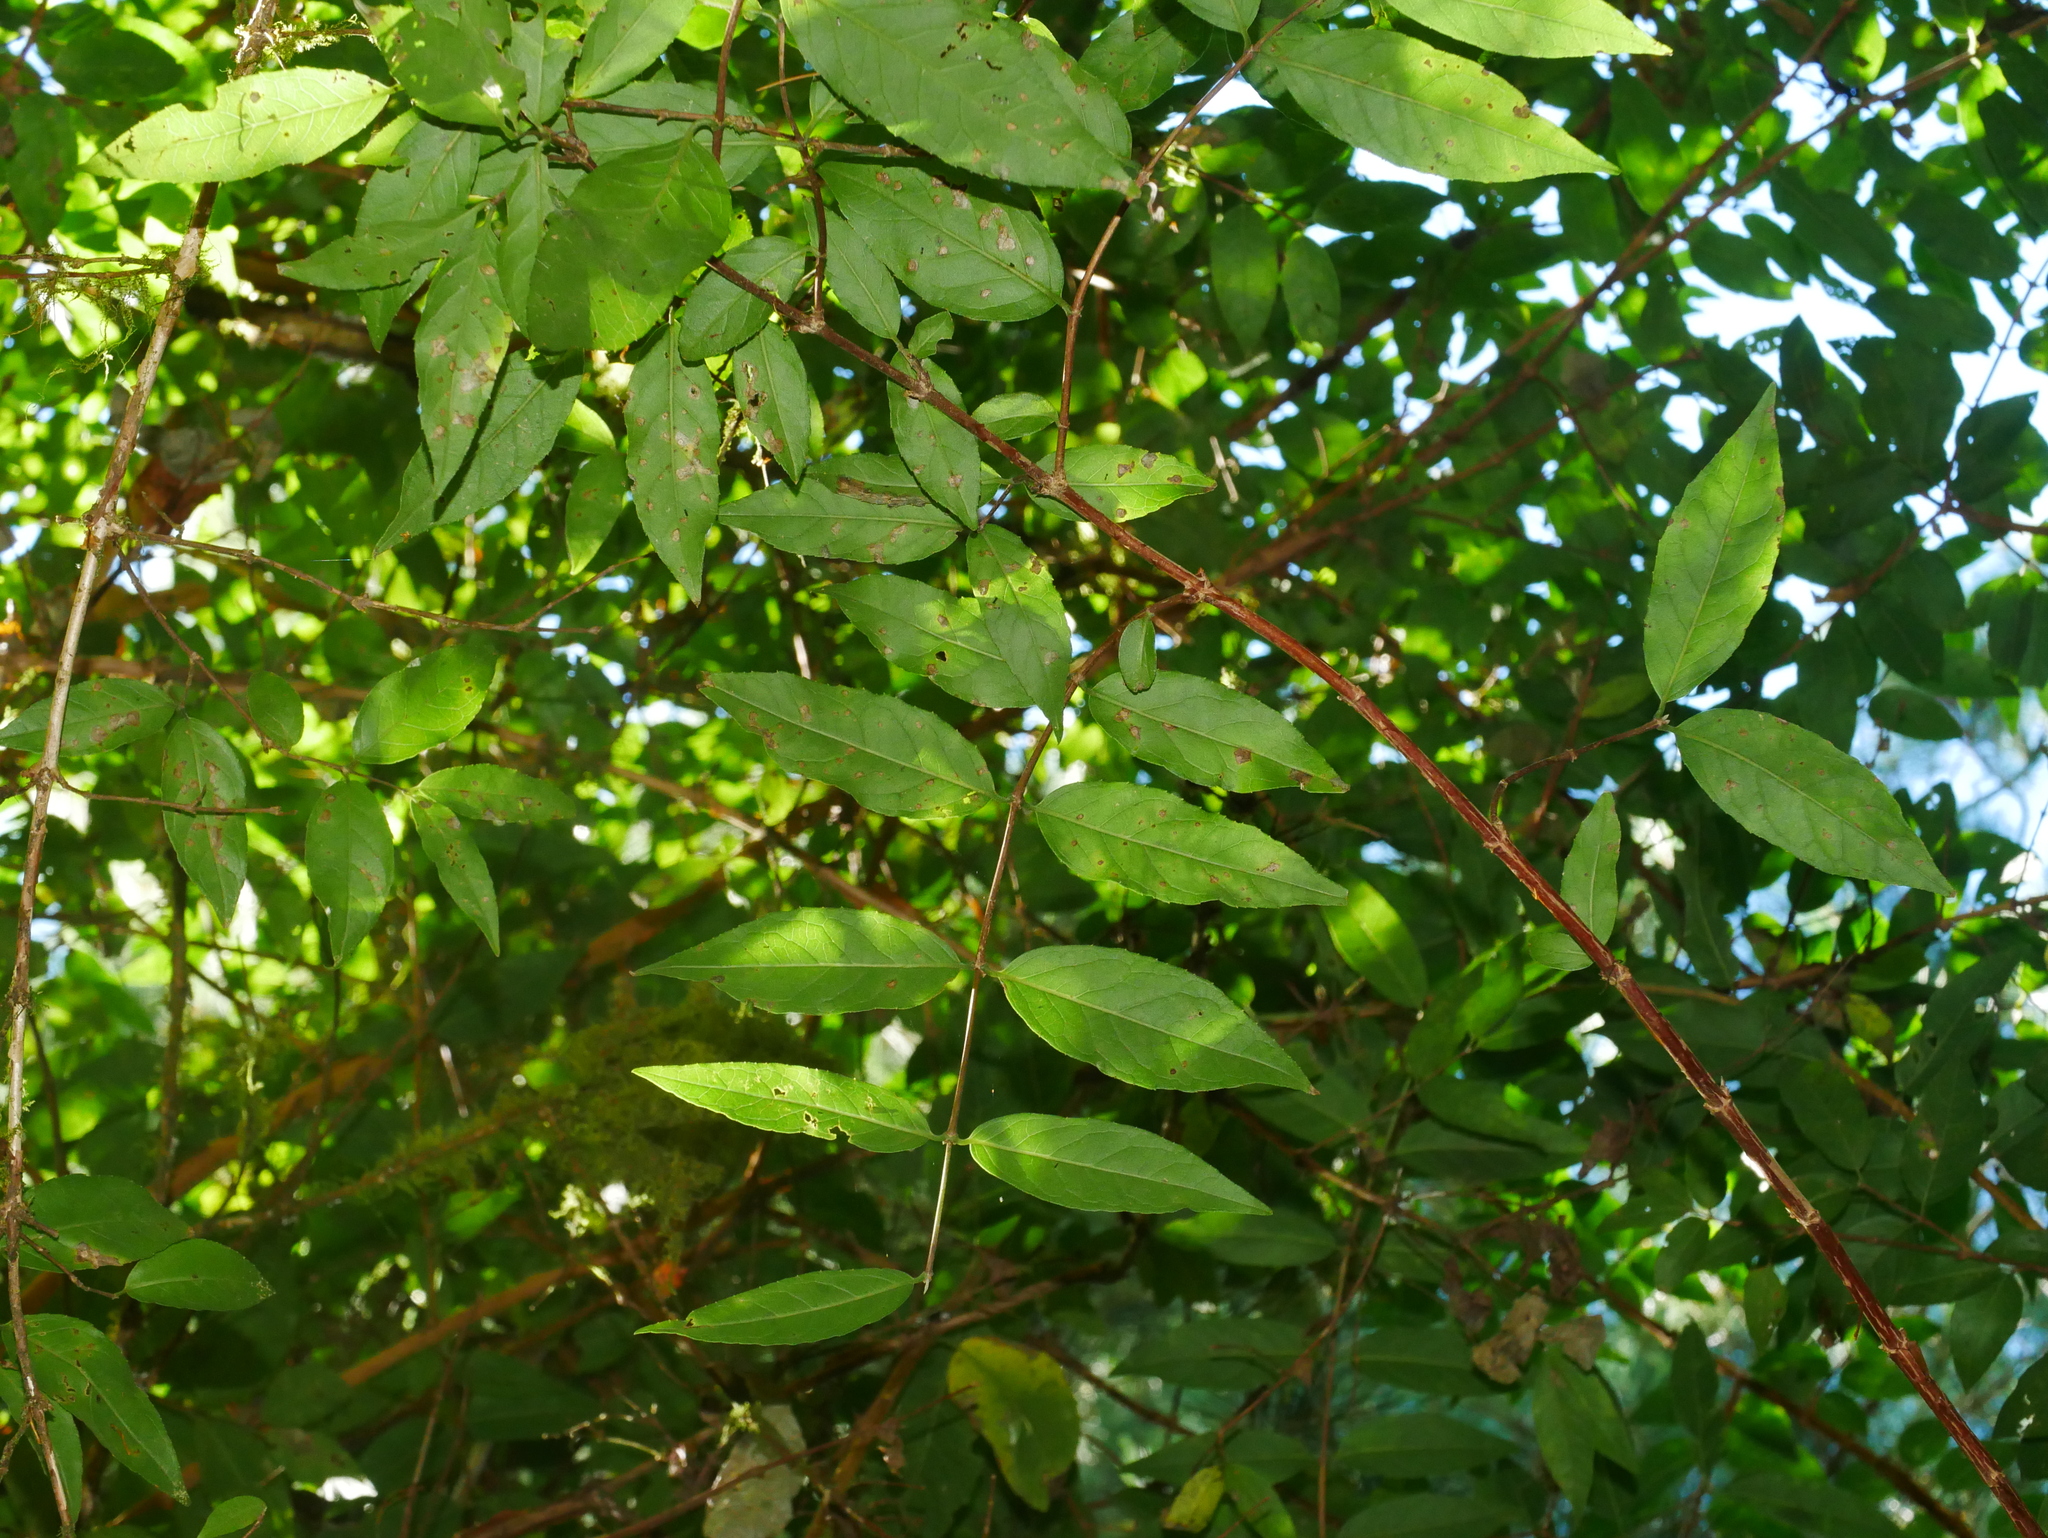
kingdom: Plantae
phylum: Tracheophyta
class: Magnoliopsida
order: Cornales
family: Hydrangeaceae
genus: Deutzia
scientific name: Deutzia pulchra
